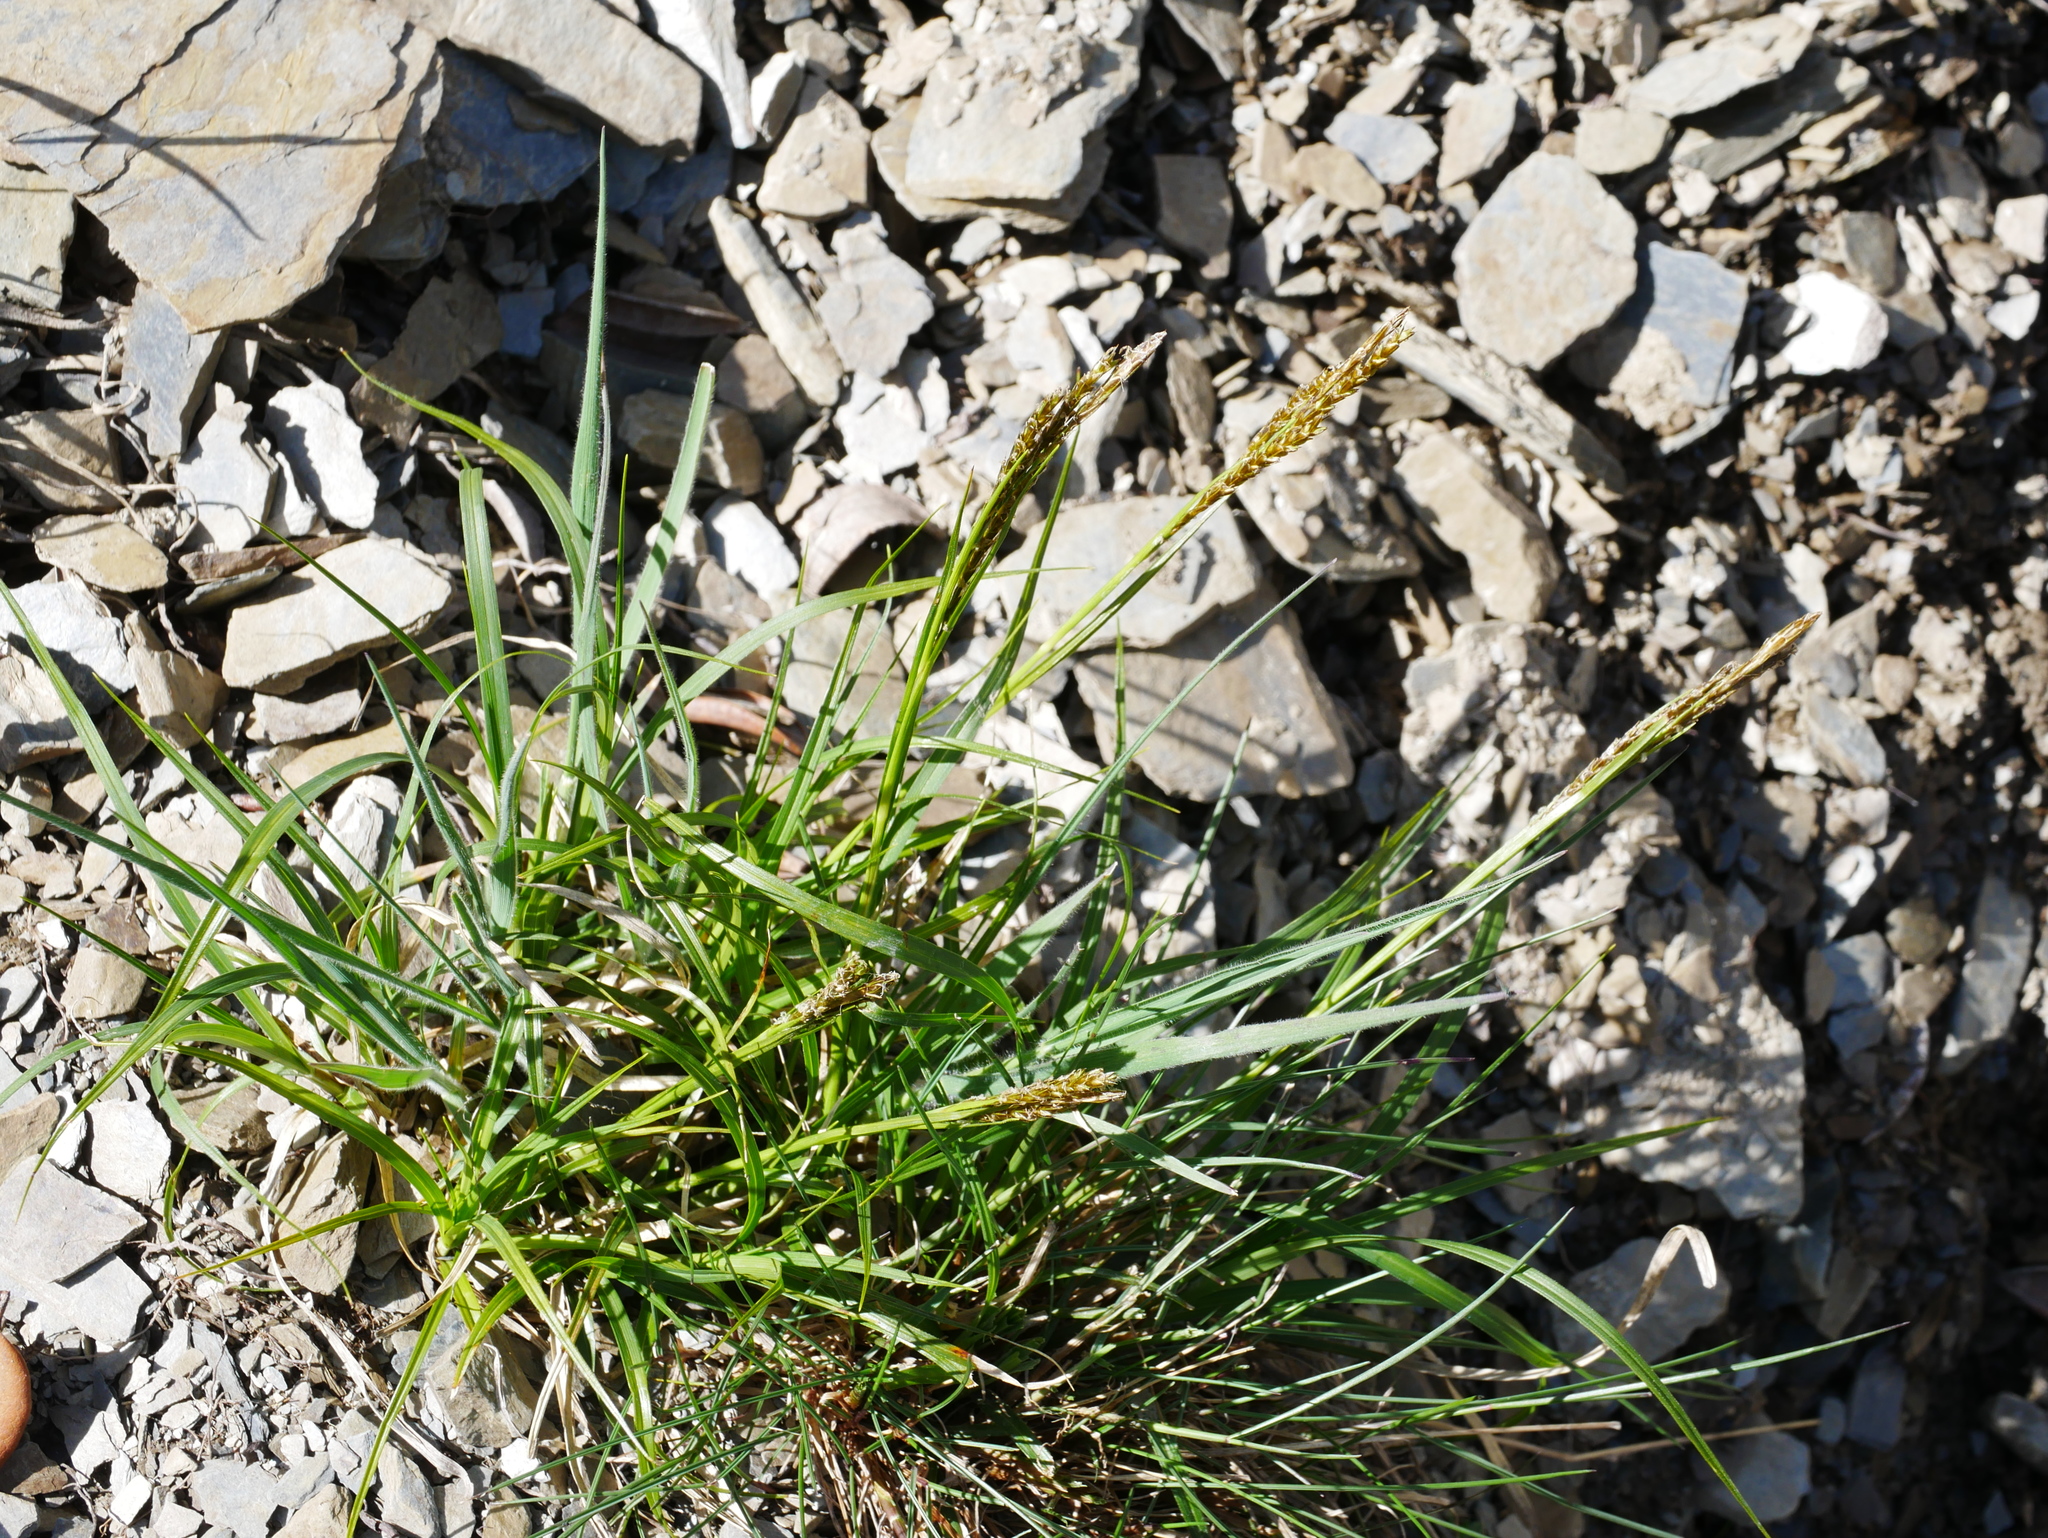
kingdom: Plantae
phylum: Tracheophyta
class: Liliopsida
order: Poales
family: Cyperaceae
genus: Carex
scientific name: Carex brachyanthera
